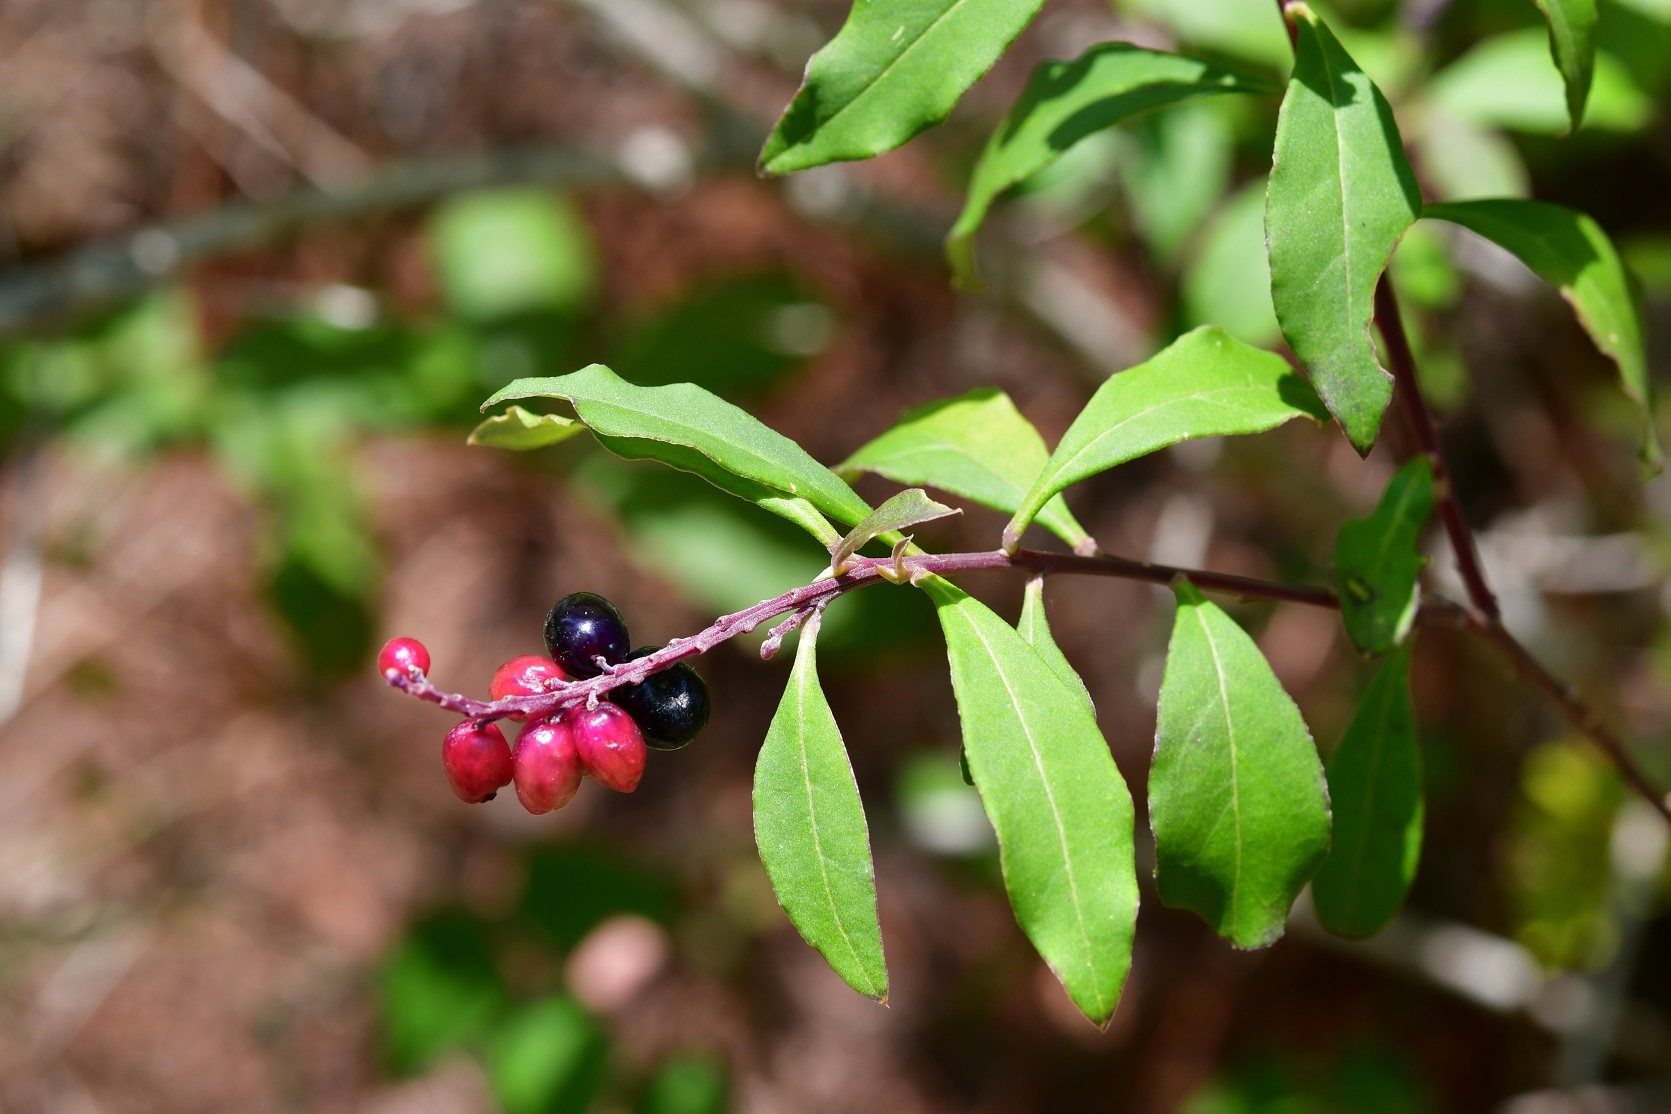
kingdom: Plantae
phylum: Tracheophyta
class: Magnoliopsida
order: Fabales
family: Polygalaceae
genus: Monnina
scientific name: Monnina xalapensis
